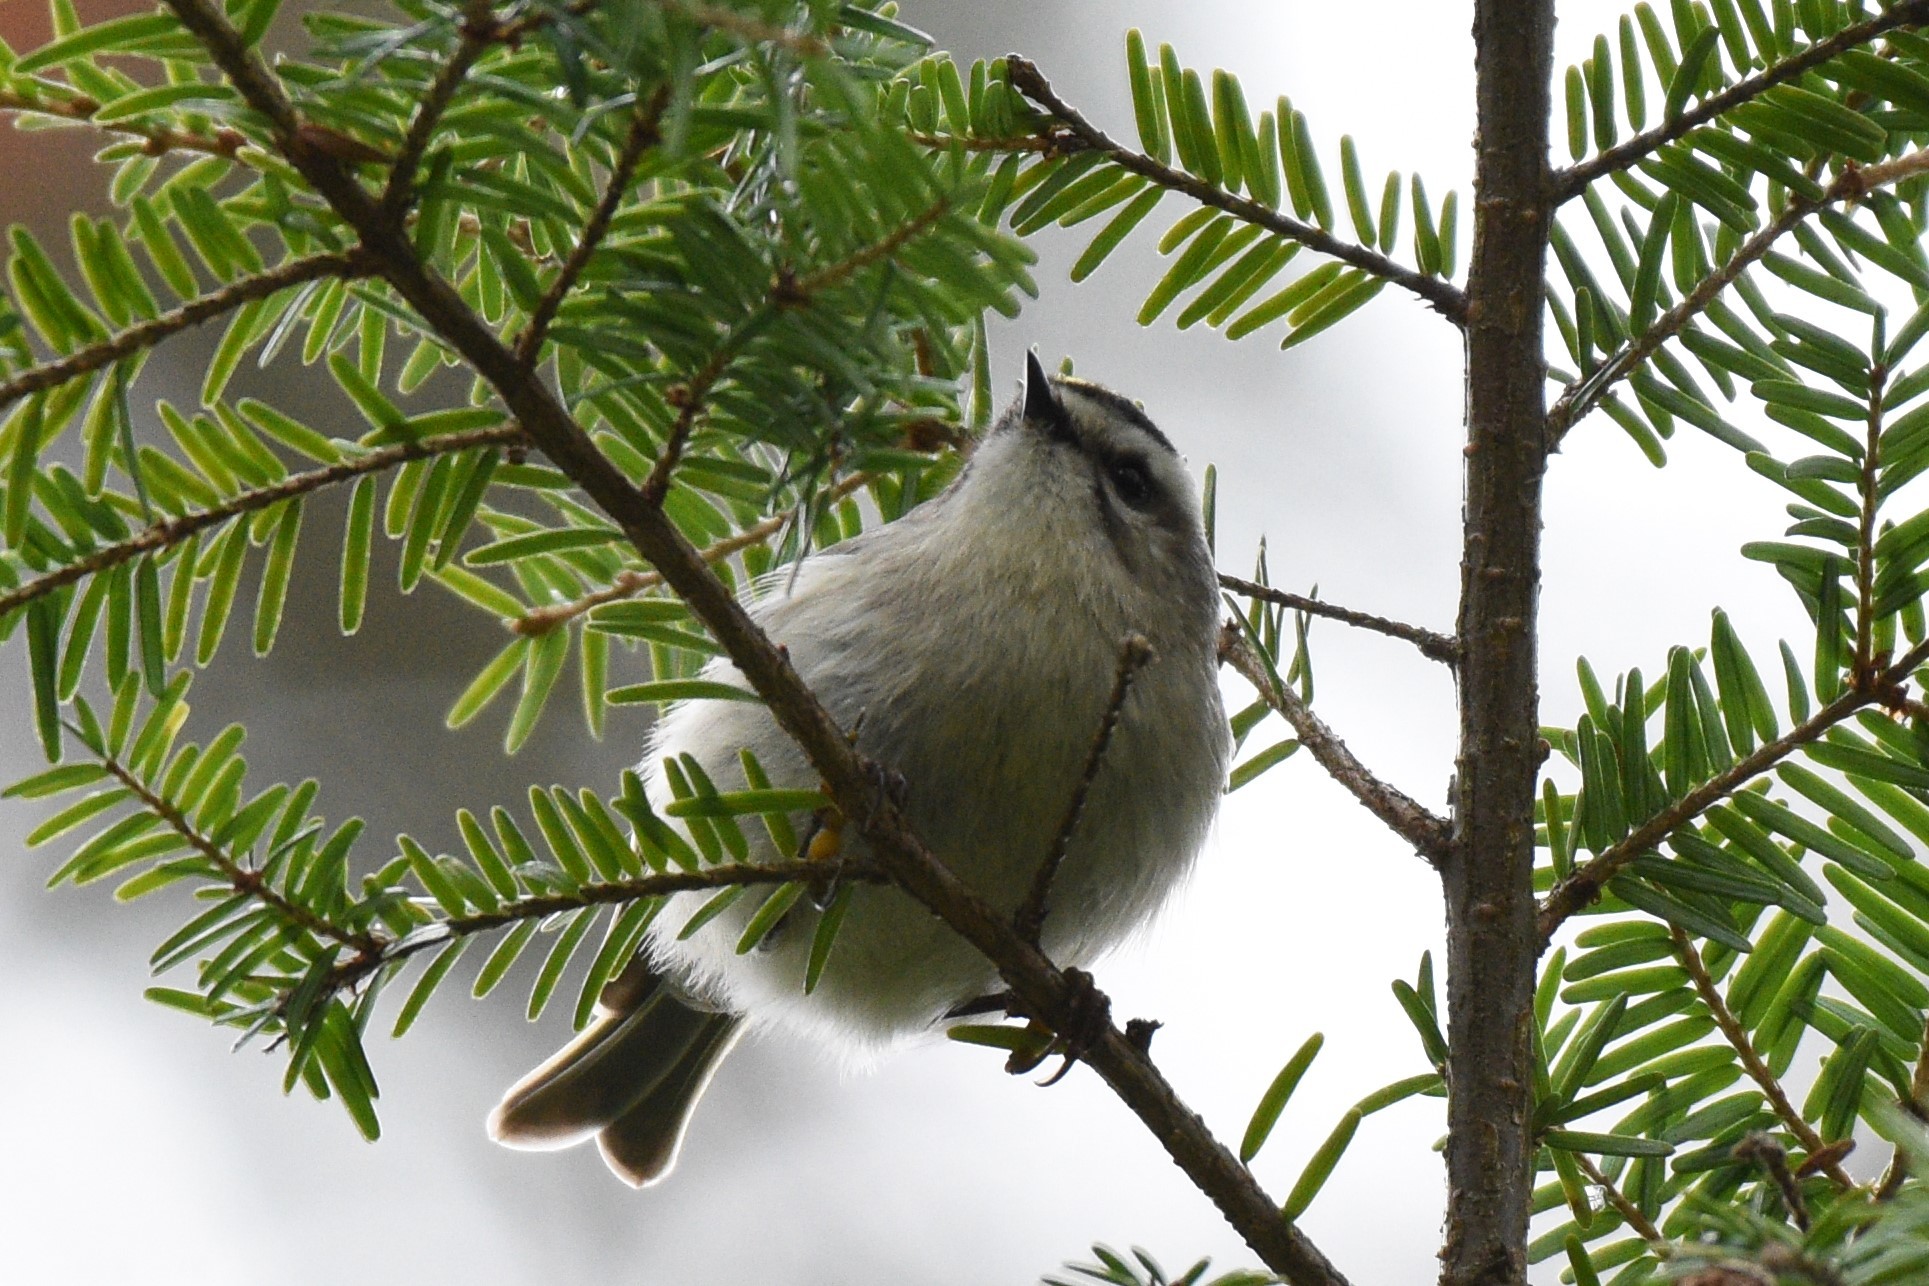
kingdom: Animalia
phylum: Chordata
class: Aves
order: Passeriformes
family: Regulidae
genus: Regulus
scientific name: Regulus satrapa
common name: Golden-crowned kinglet
